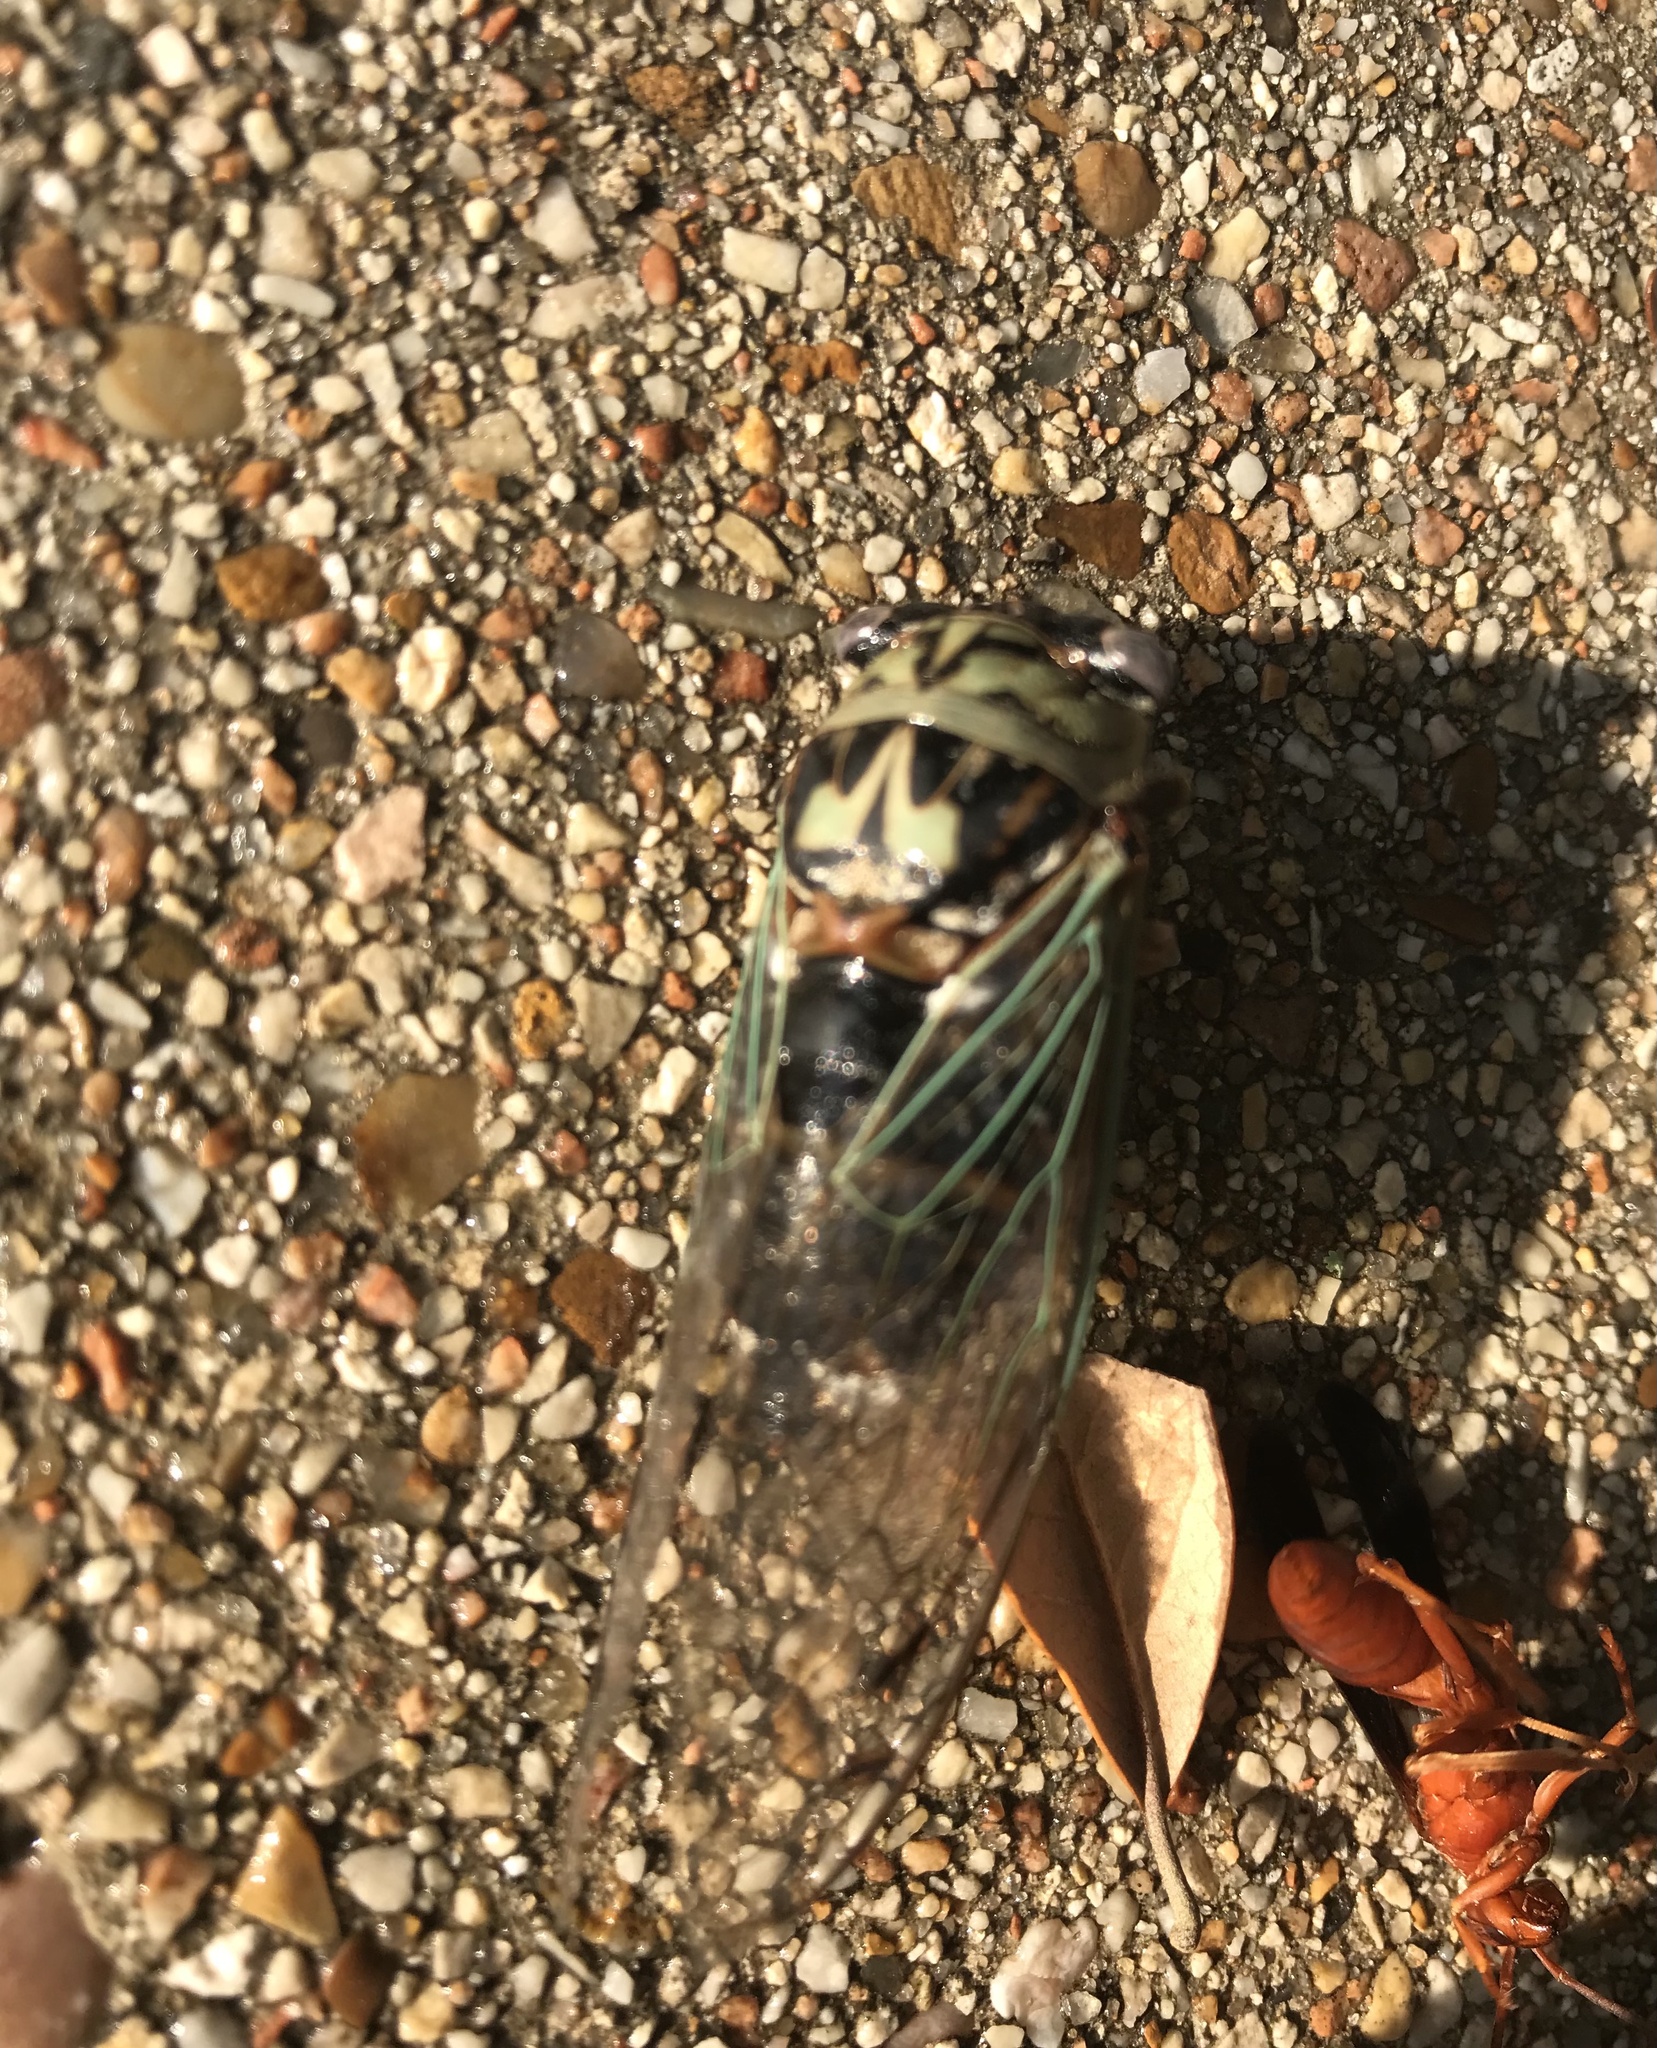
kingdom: Animalia
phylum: Arthropoda
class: Insecta
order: Hemiptera
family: Cicadidae
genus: Megatibicen
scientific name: Megatibicen resh
